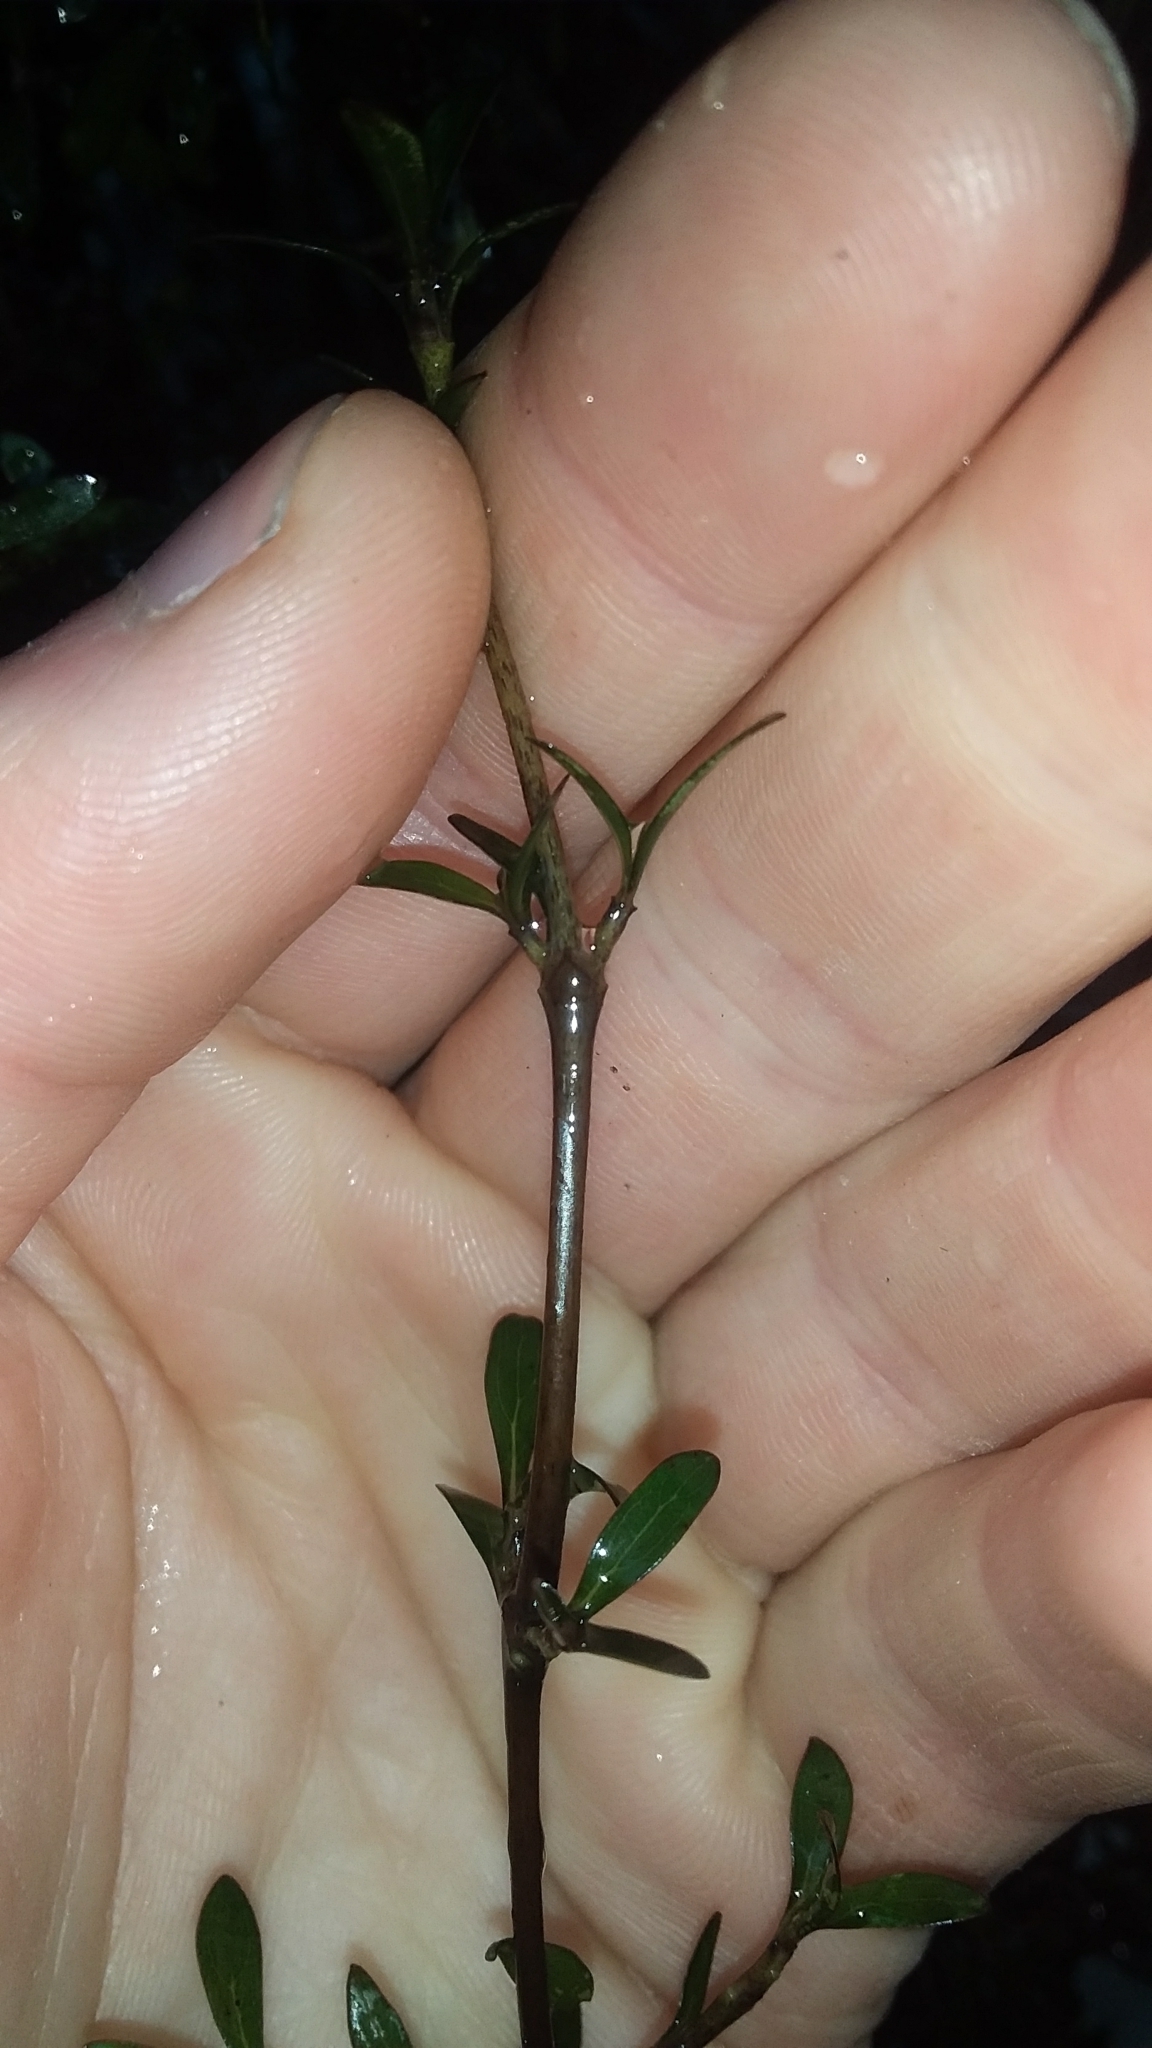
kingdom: Plantae
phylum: Tracheophyta
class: Magnoliopsida
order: Gentianales
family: Rubiaceae
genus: Coprosma
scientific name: Coprosma propinqua
